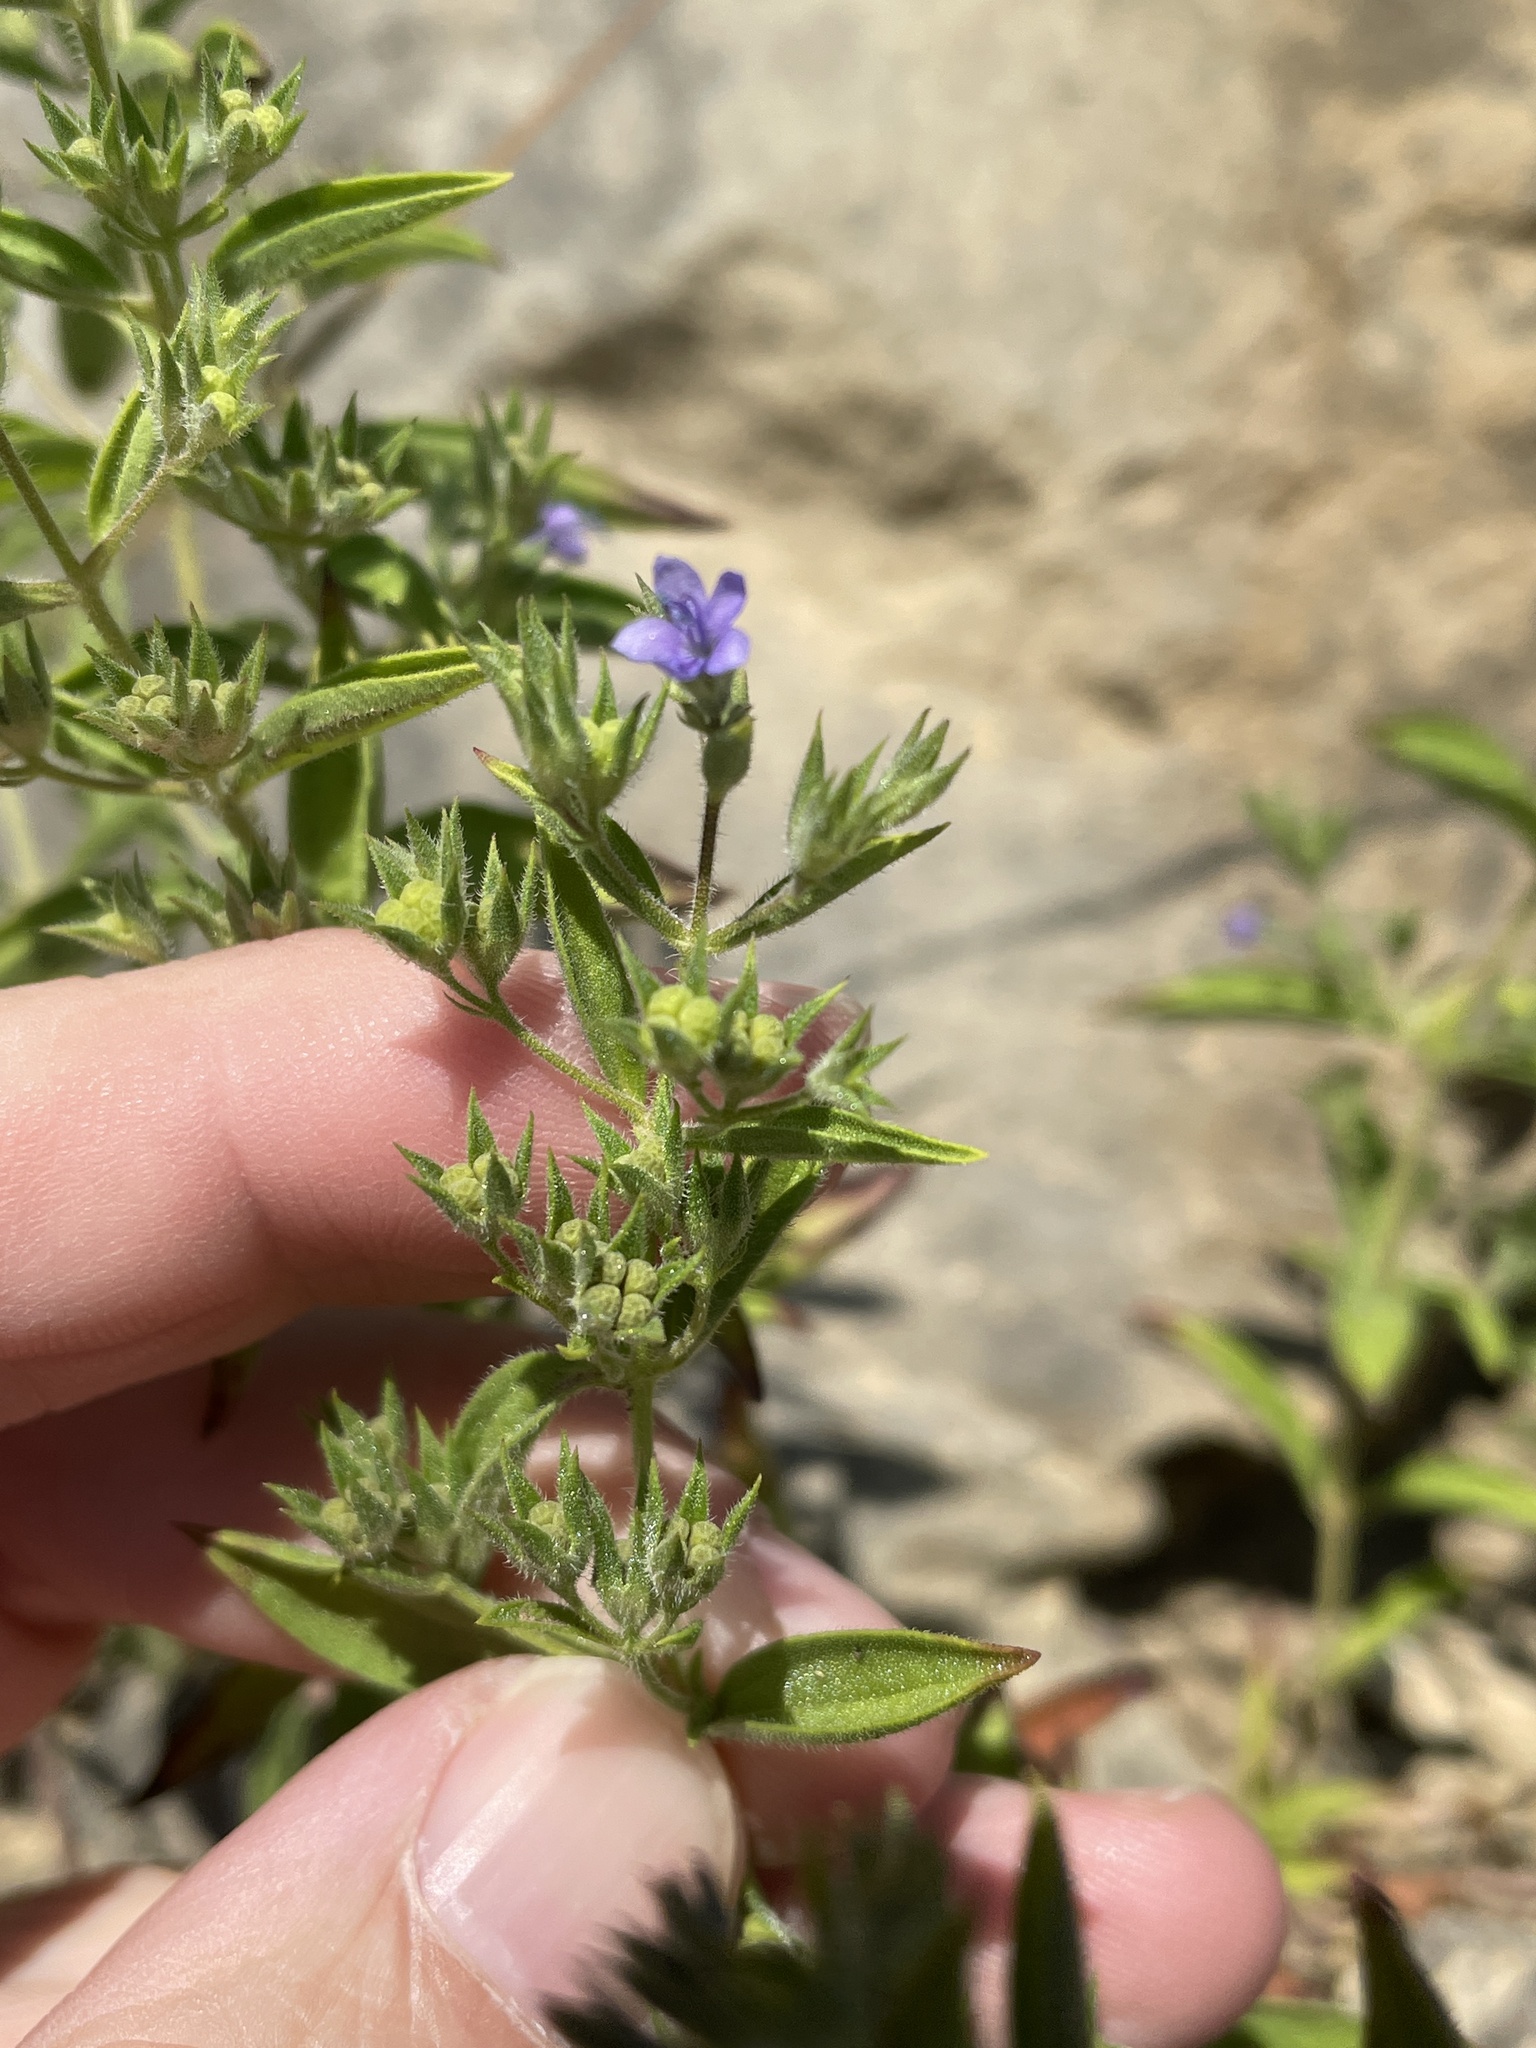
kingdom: Plantae
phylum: Tracheophyta
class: Magnoliopsida
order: Lamiales
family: Lamiaceae
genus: Trichostema
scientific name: Trichostema brachiatum
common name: False pennyroyal
